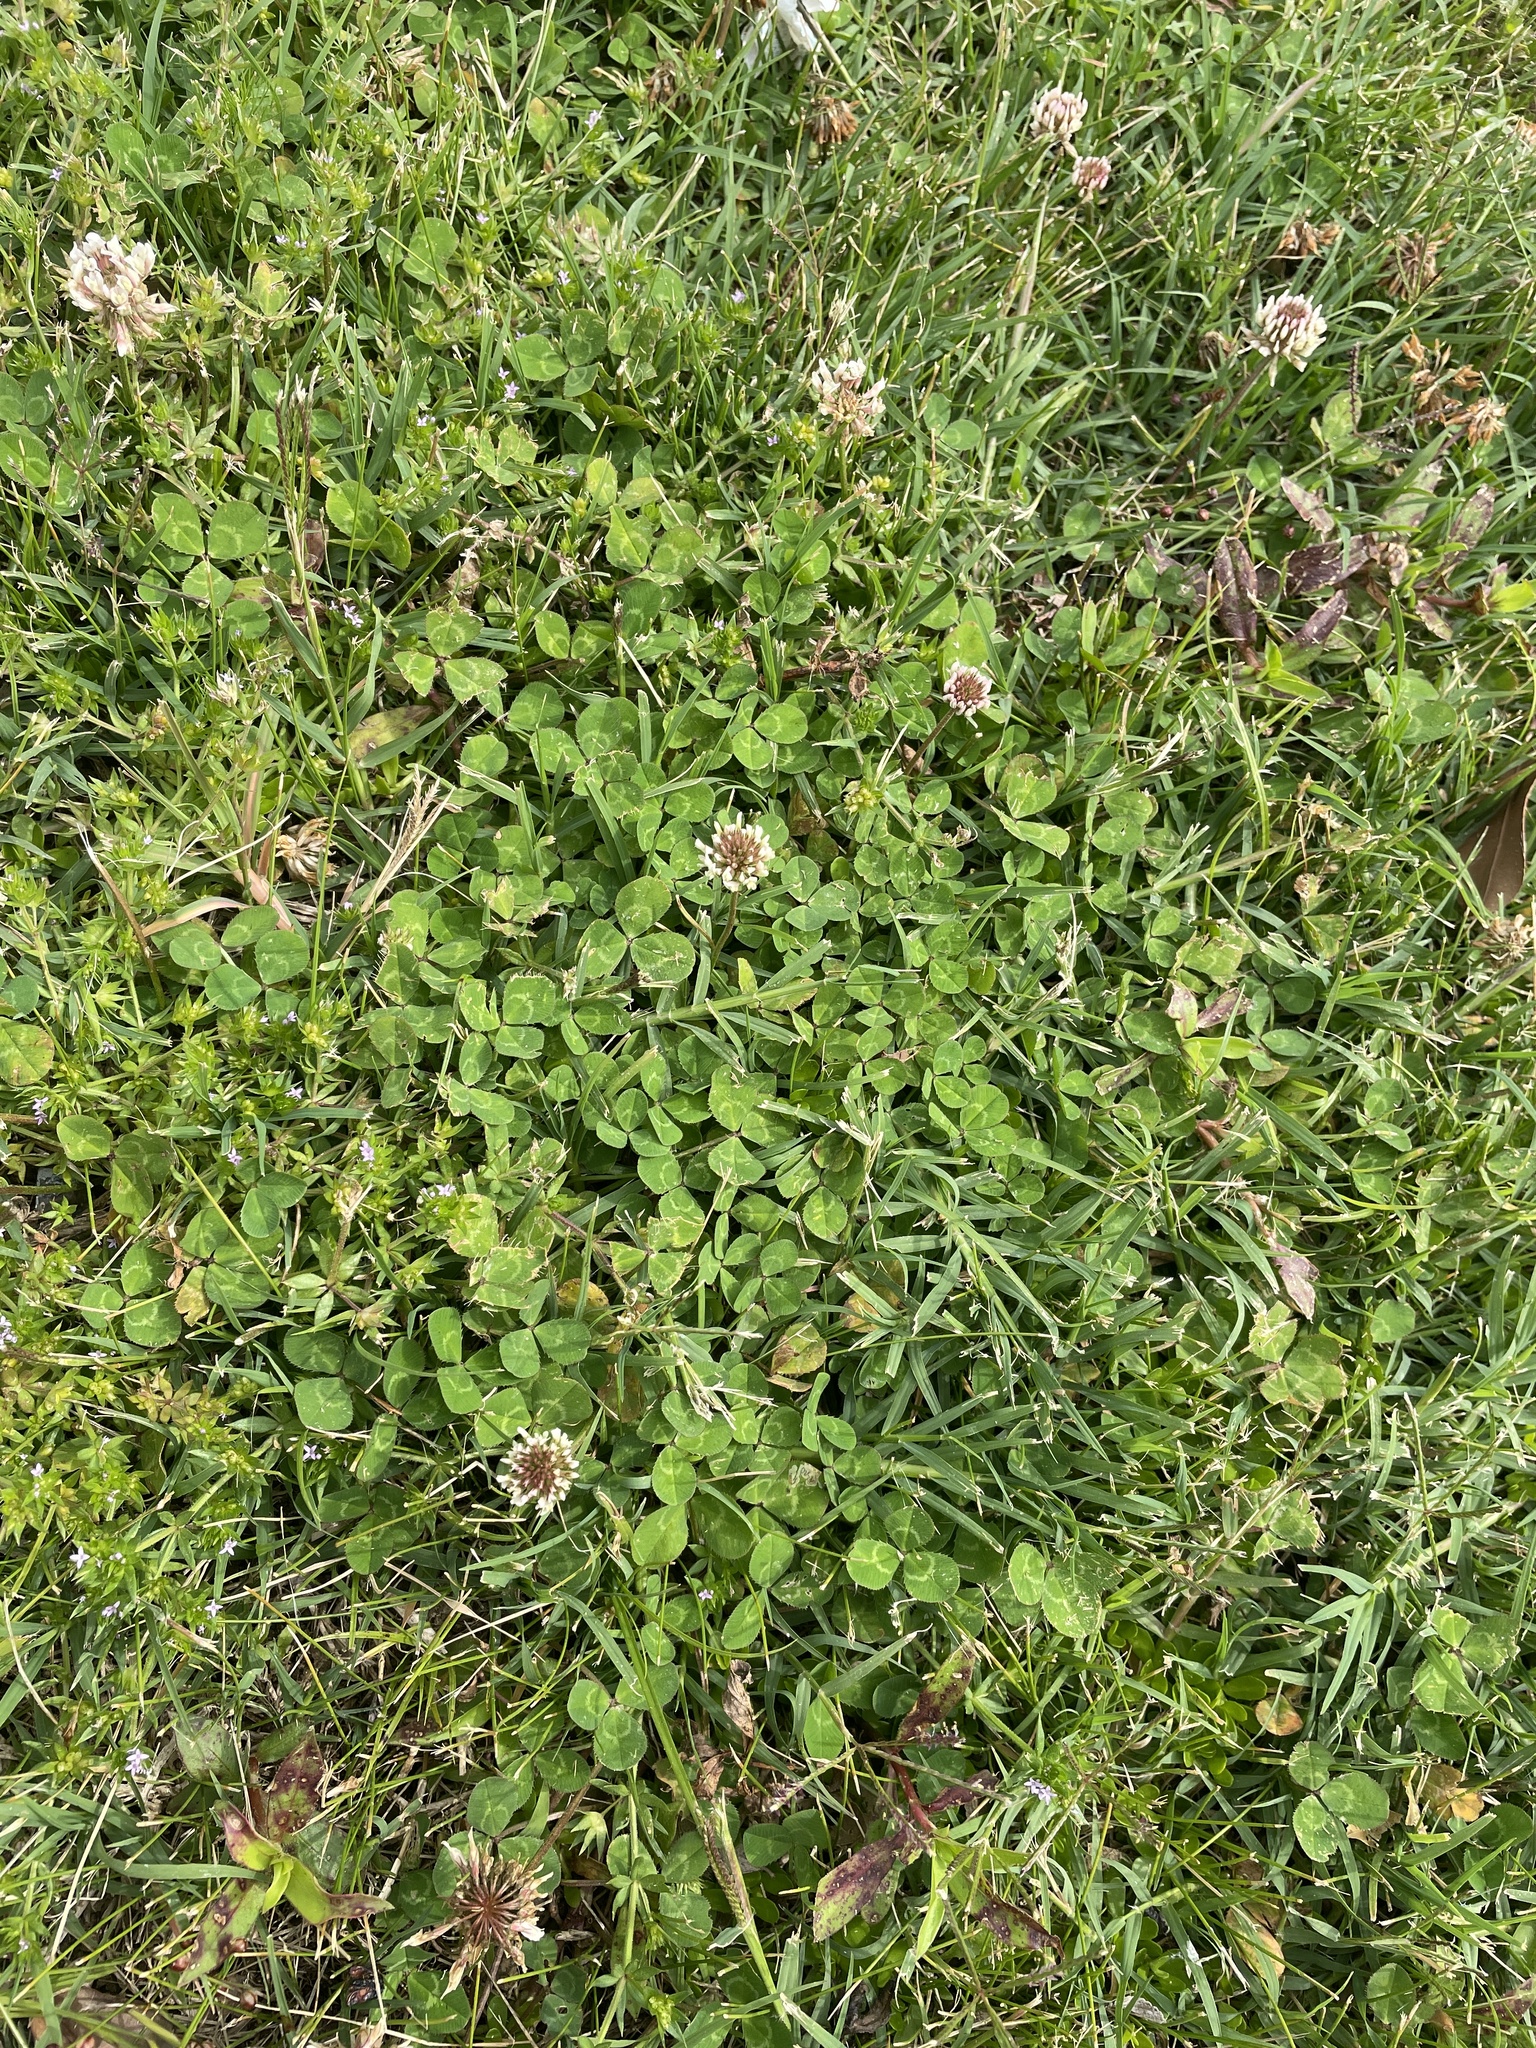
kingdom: Plantae
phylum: Tracheophyta
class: Magnoliopsida
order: Fabales
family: Fabaceae
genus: Trifolium
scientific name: Trifolium repens
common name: White clover
